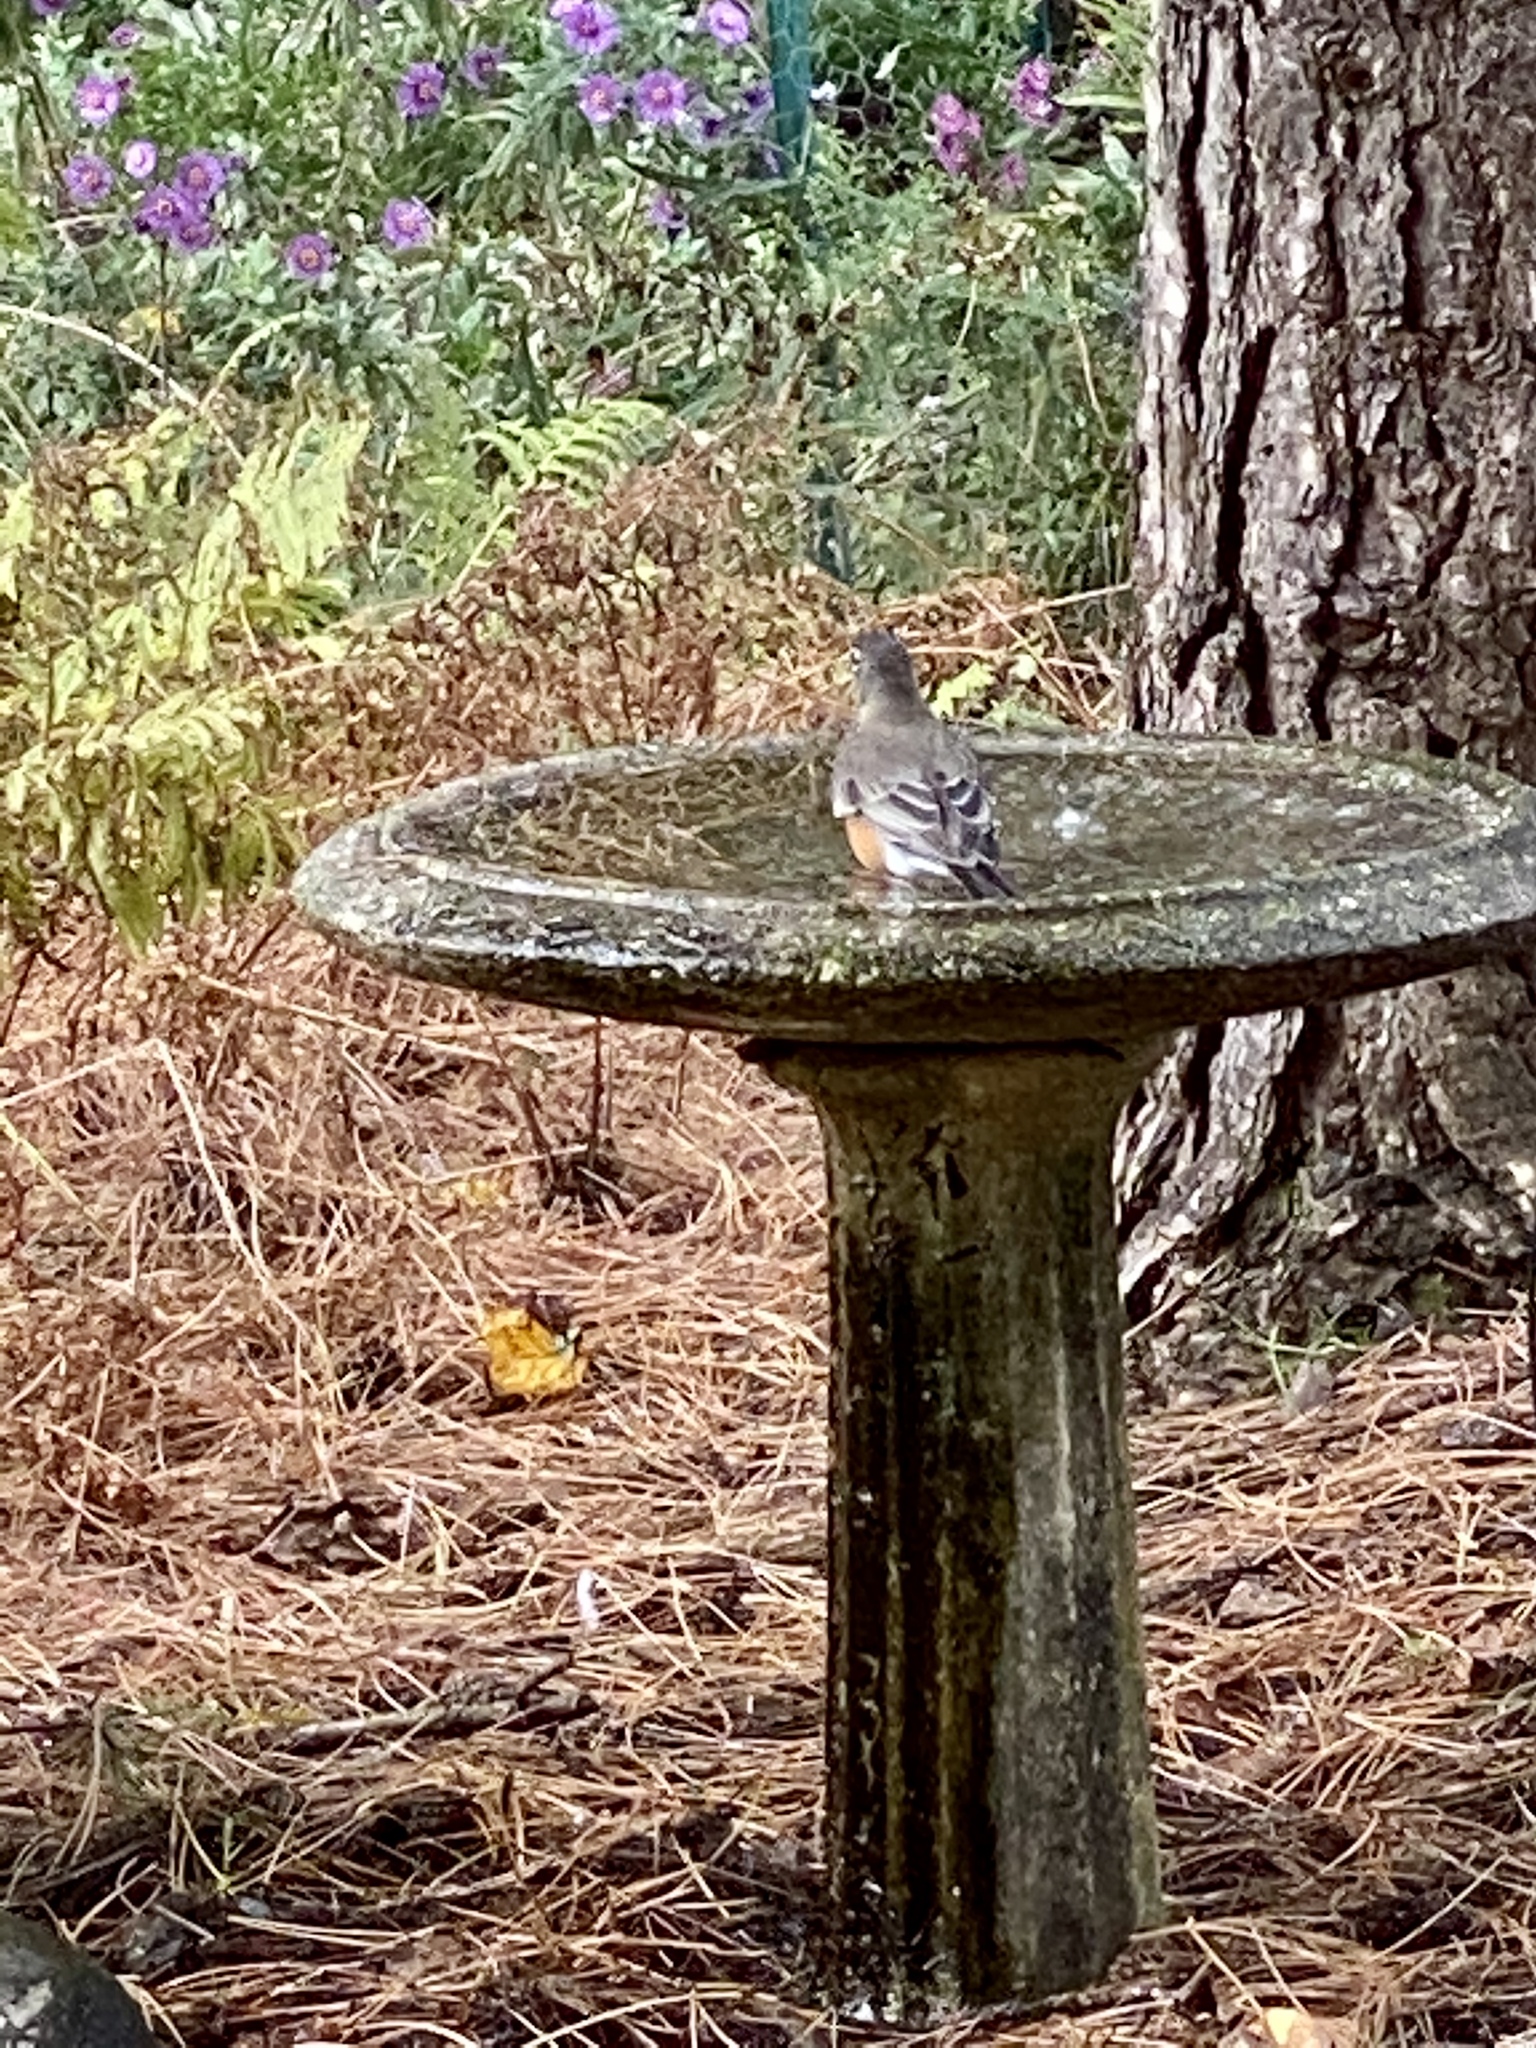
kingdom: Animalia
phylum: Chordata
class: Aves
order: Passeriformes
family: Turdidae
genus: Turdus
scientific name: Turdus migratorius
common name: American robin
